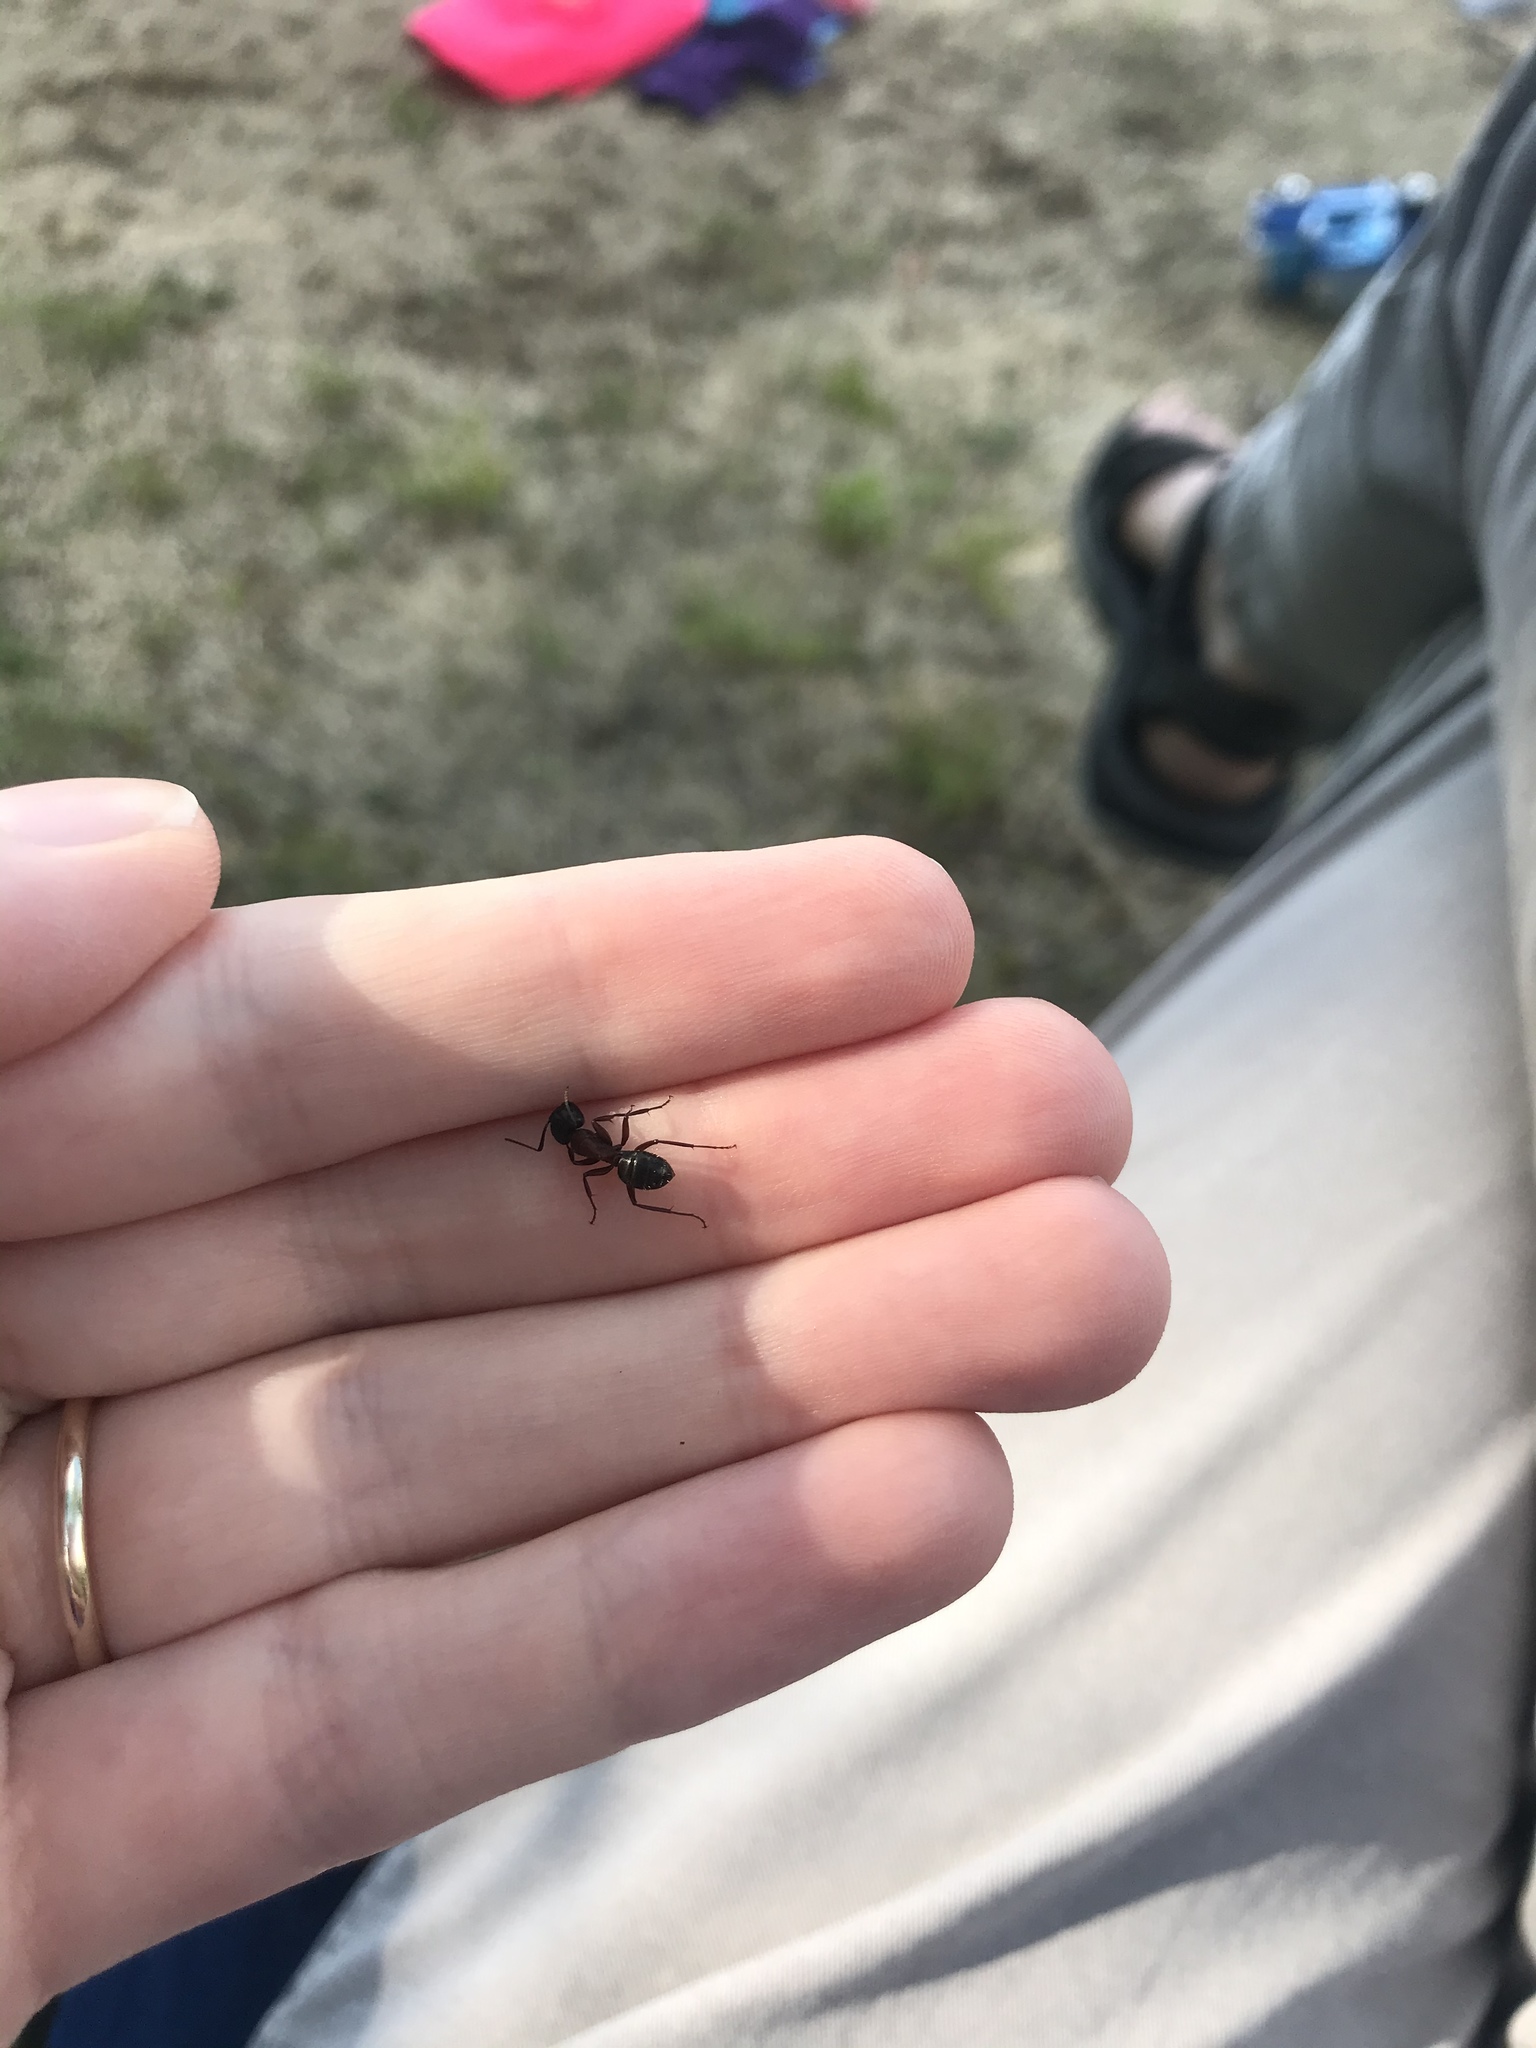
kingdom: Animalia
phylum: Arthropoda
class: Insecta
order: Hymenoptera
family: Formicidae
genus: Camponotus
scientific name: Camponotus novaeboracensis
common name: New york carpenter ant
